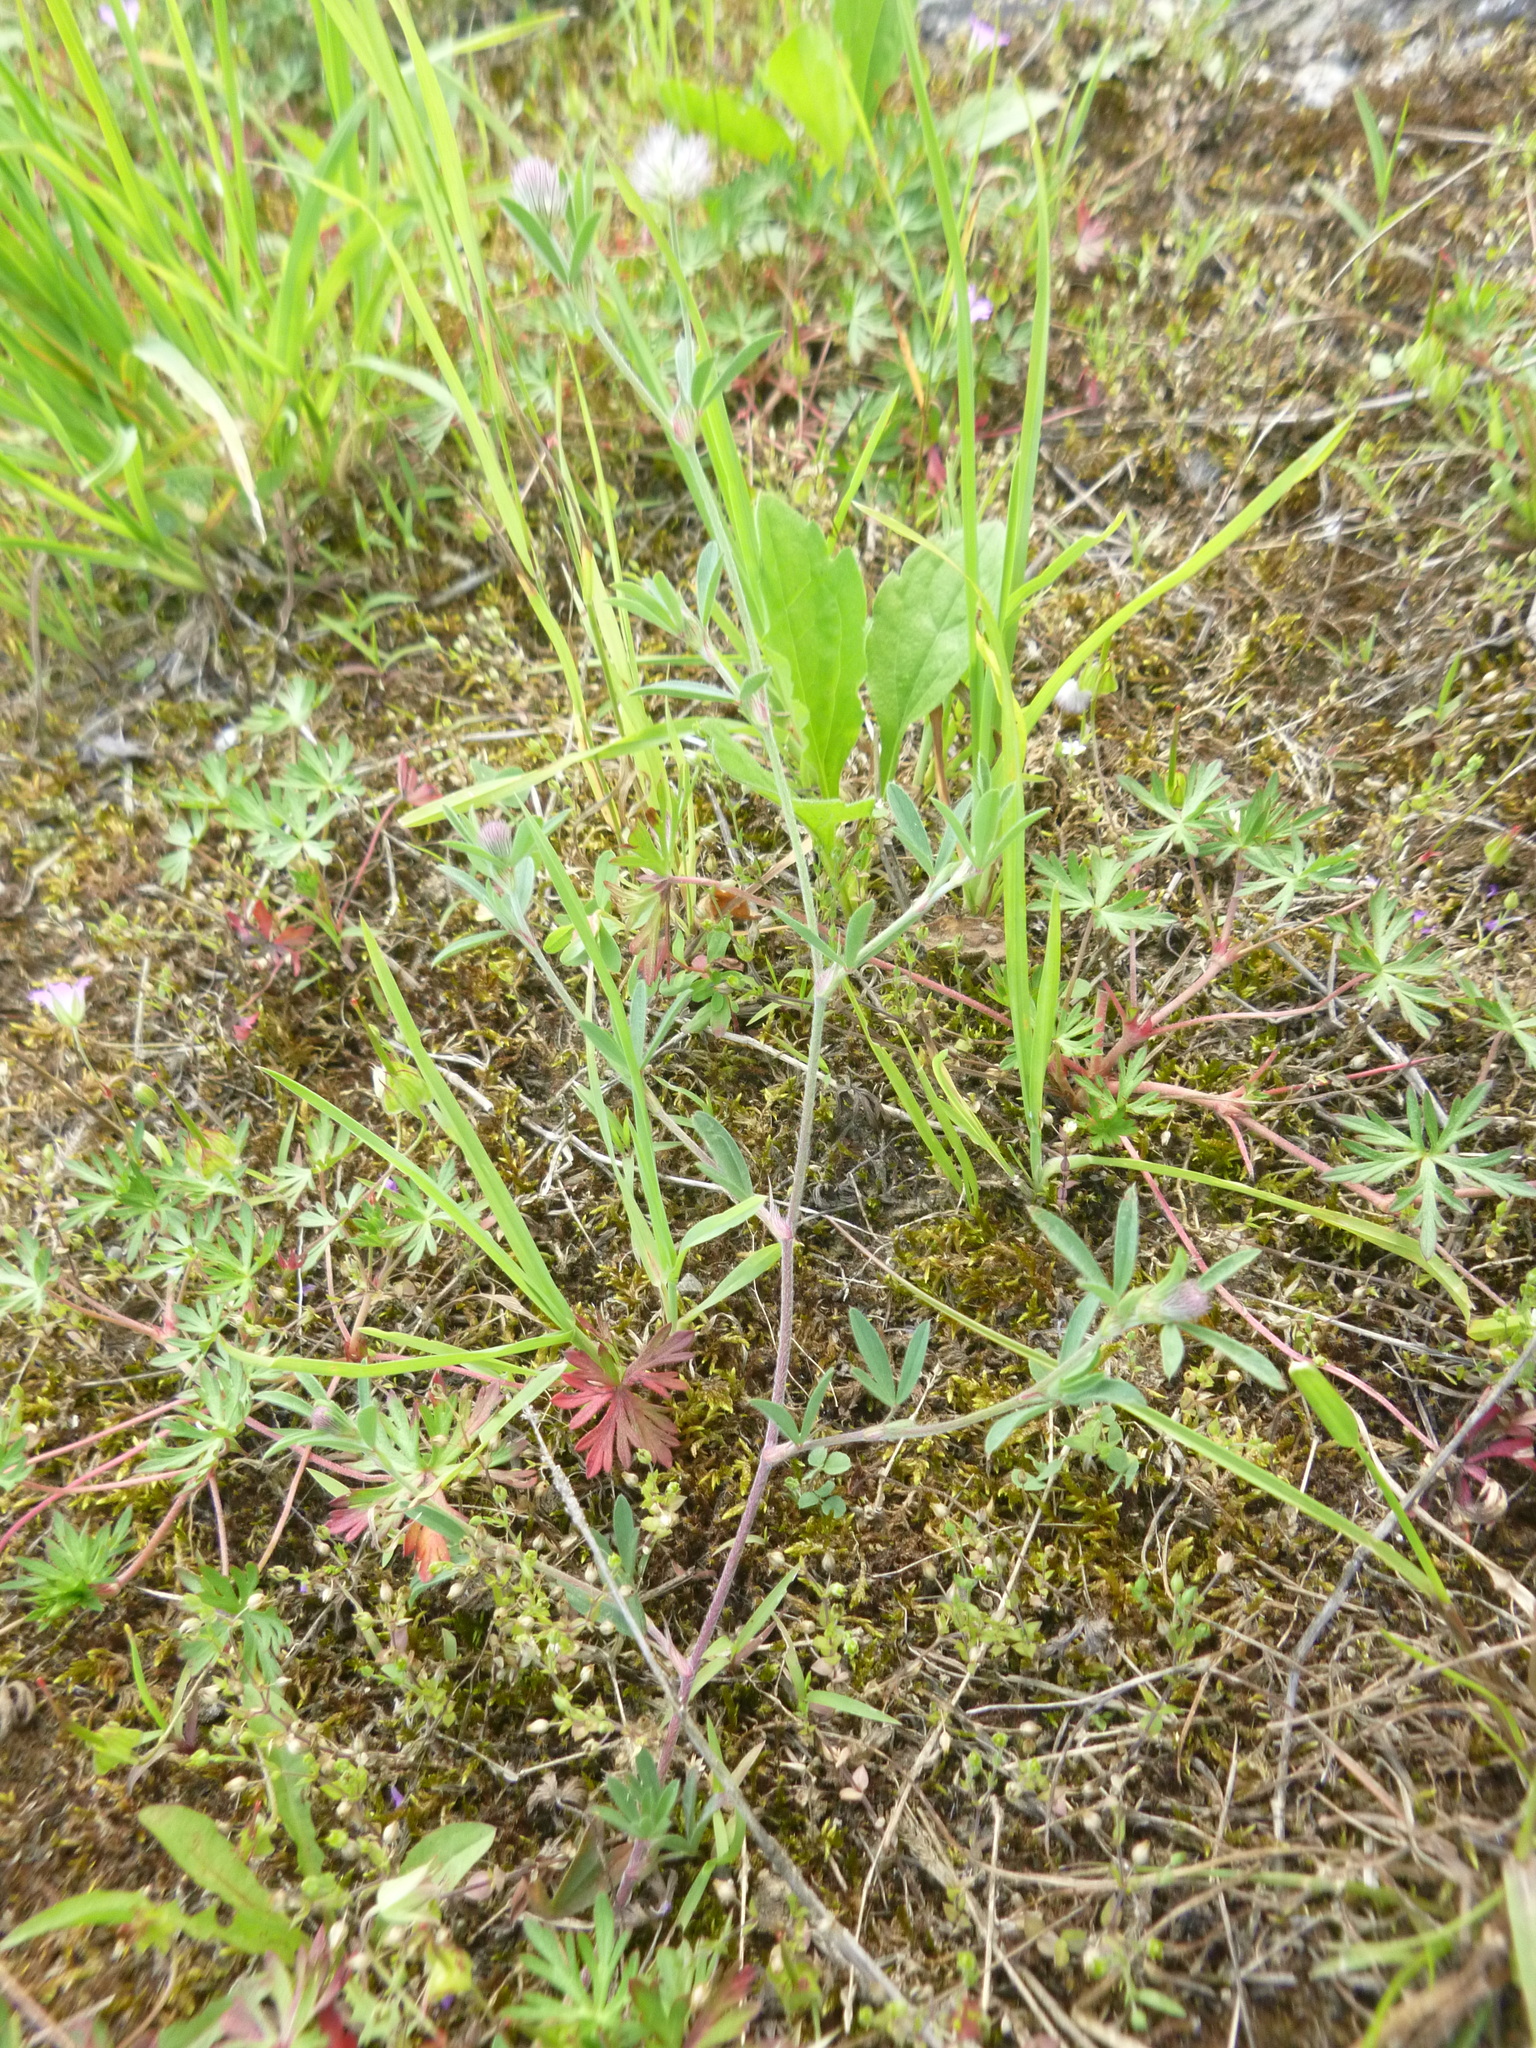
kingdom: Plantae
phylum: Tracheophyta
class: Magnoliopsida
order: Fabales
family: Fabaceae
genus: Trifolium
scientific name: Trifolium arvense
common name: Hare's-foot clover
